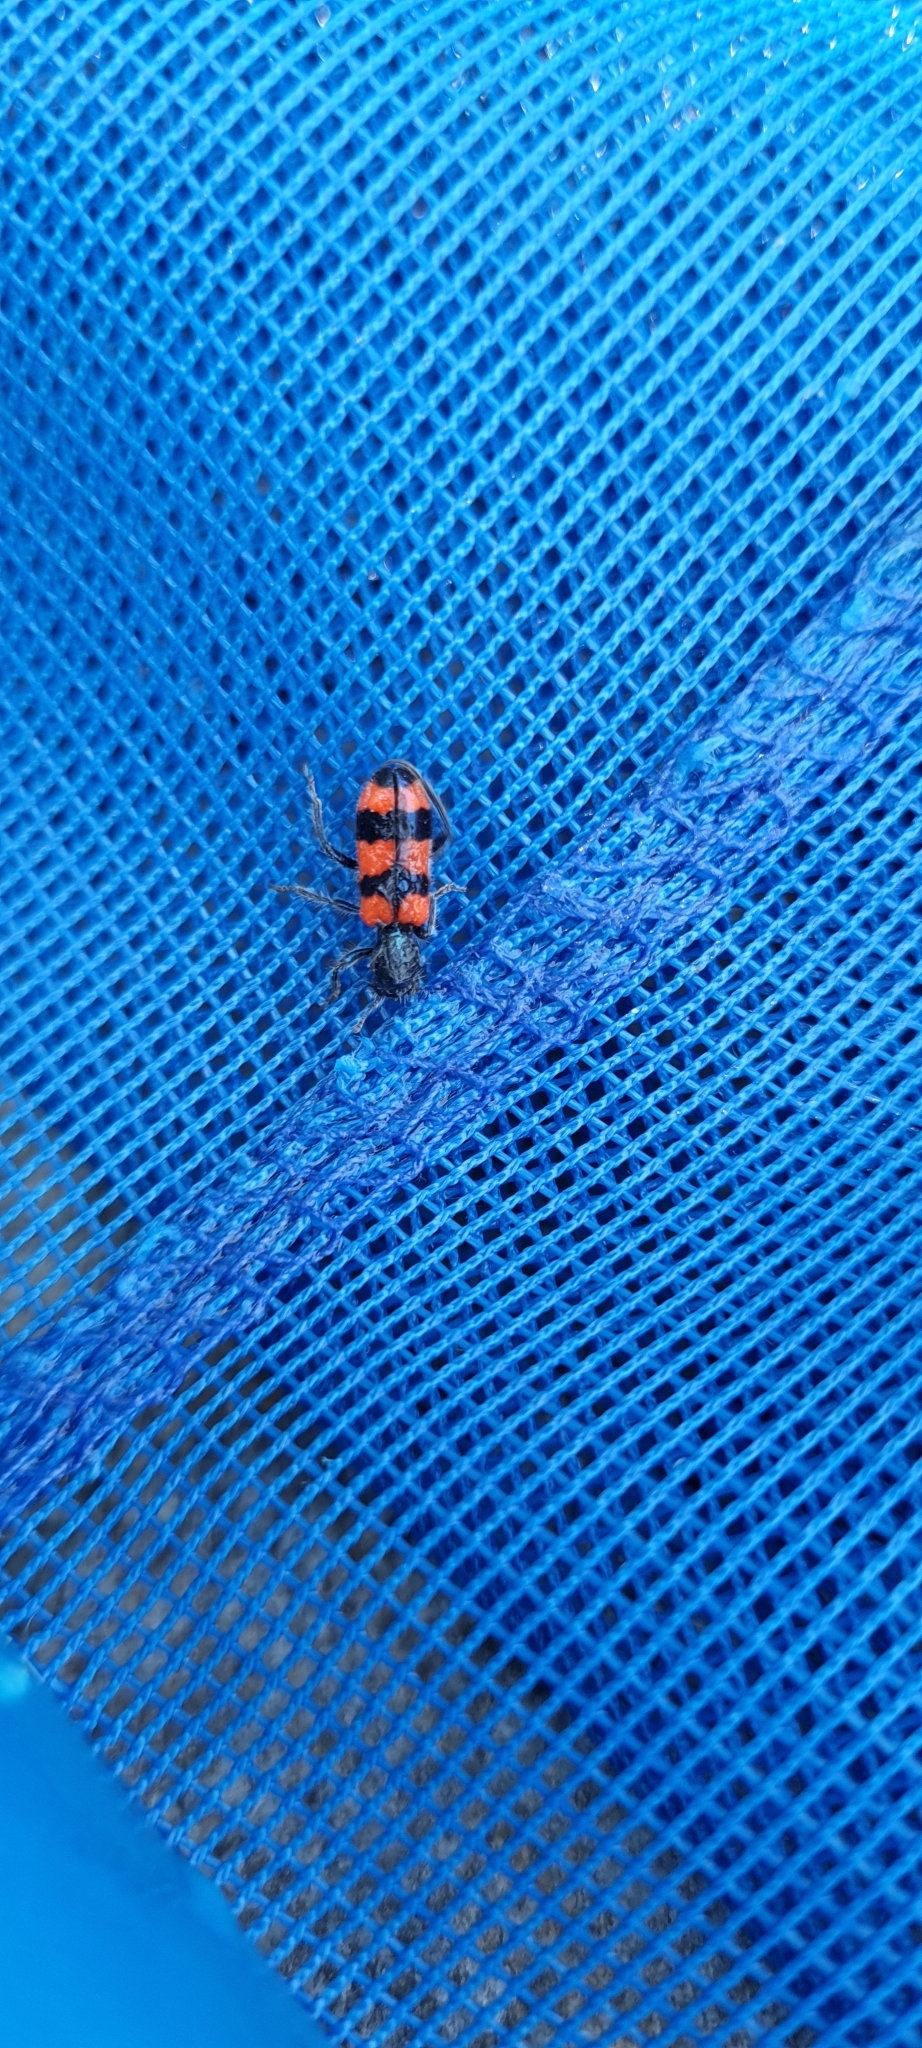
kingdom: Animalia
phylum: Arthropoda
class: Insecta
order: Coleoptera
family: Cleridae
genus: Trichodes
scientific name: Trichodes apiarius
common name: Bee-eating beetle
